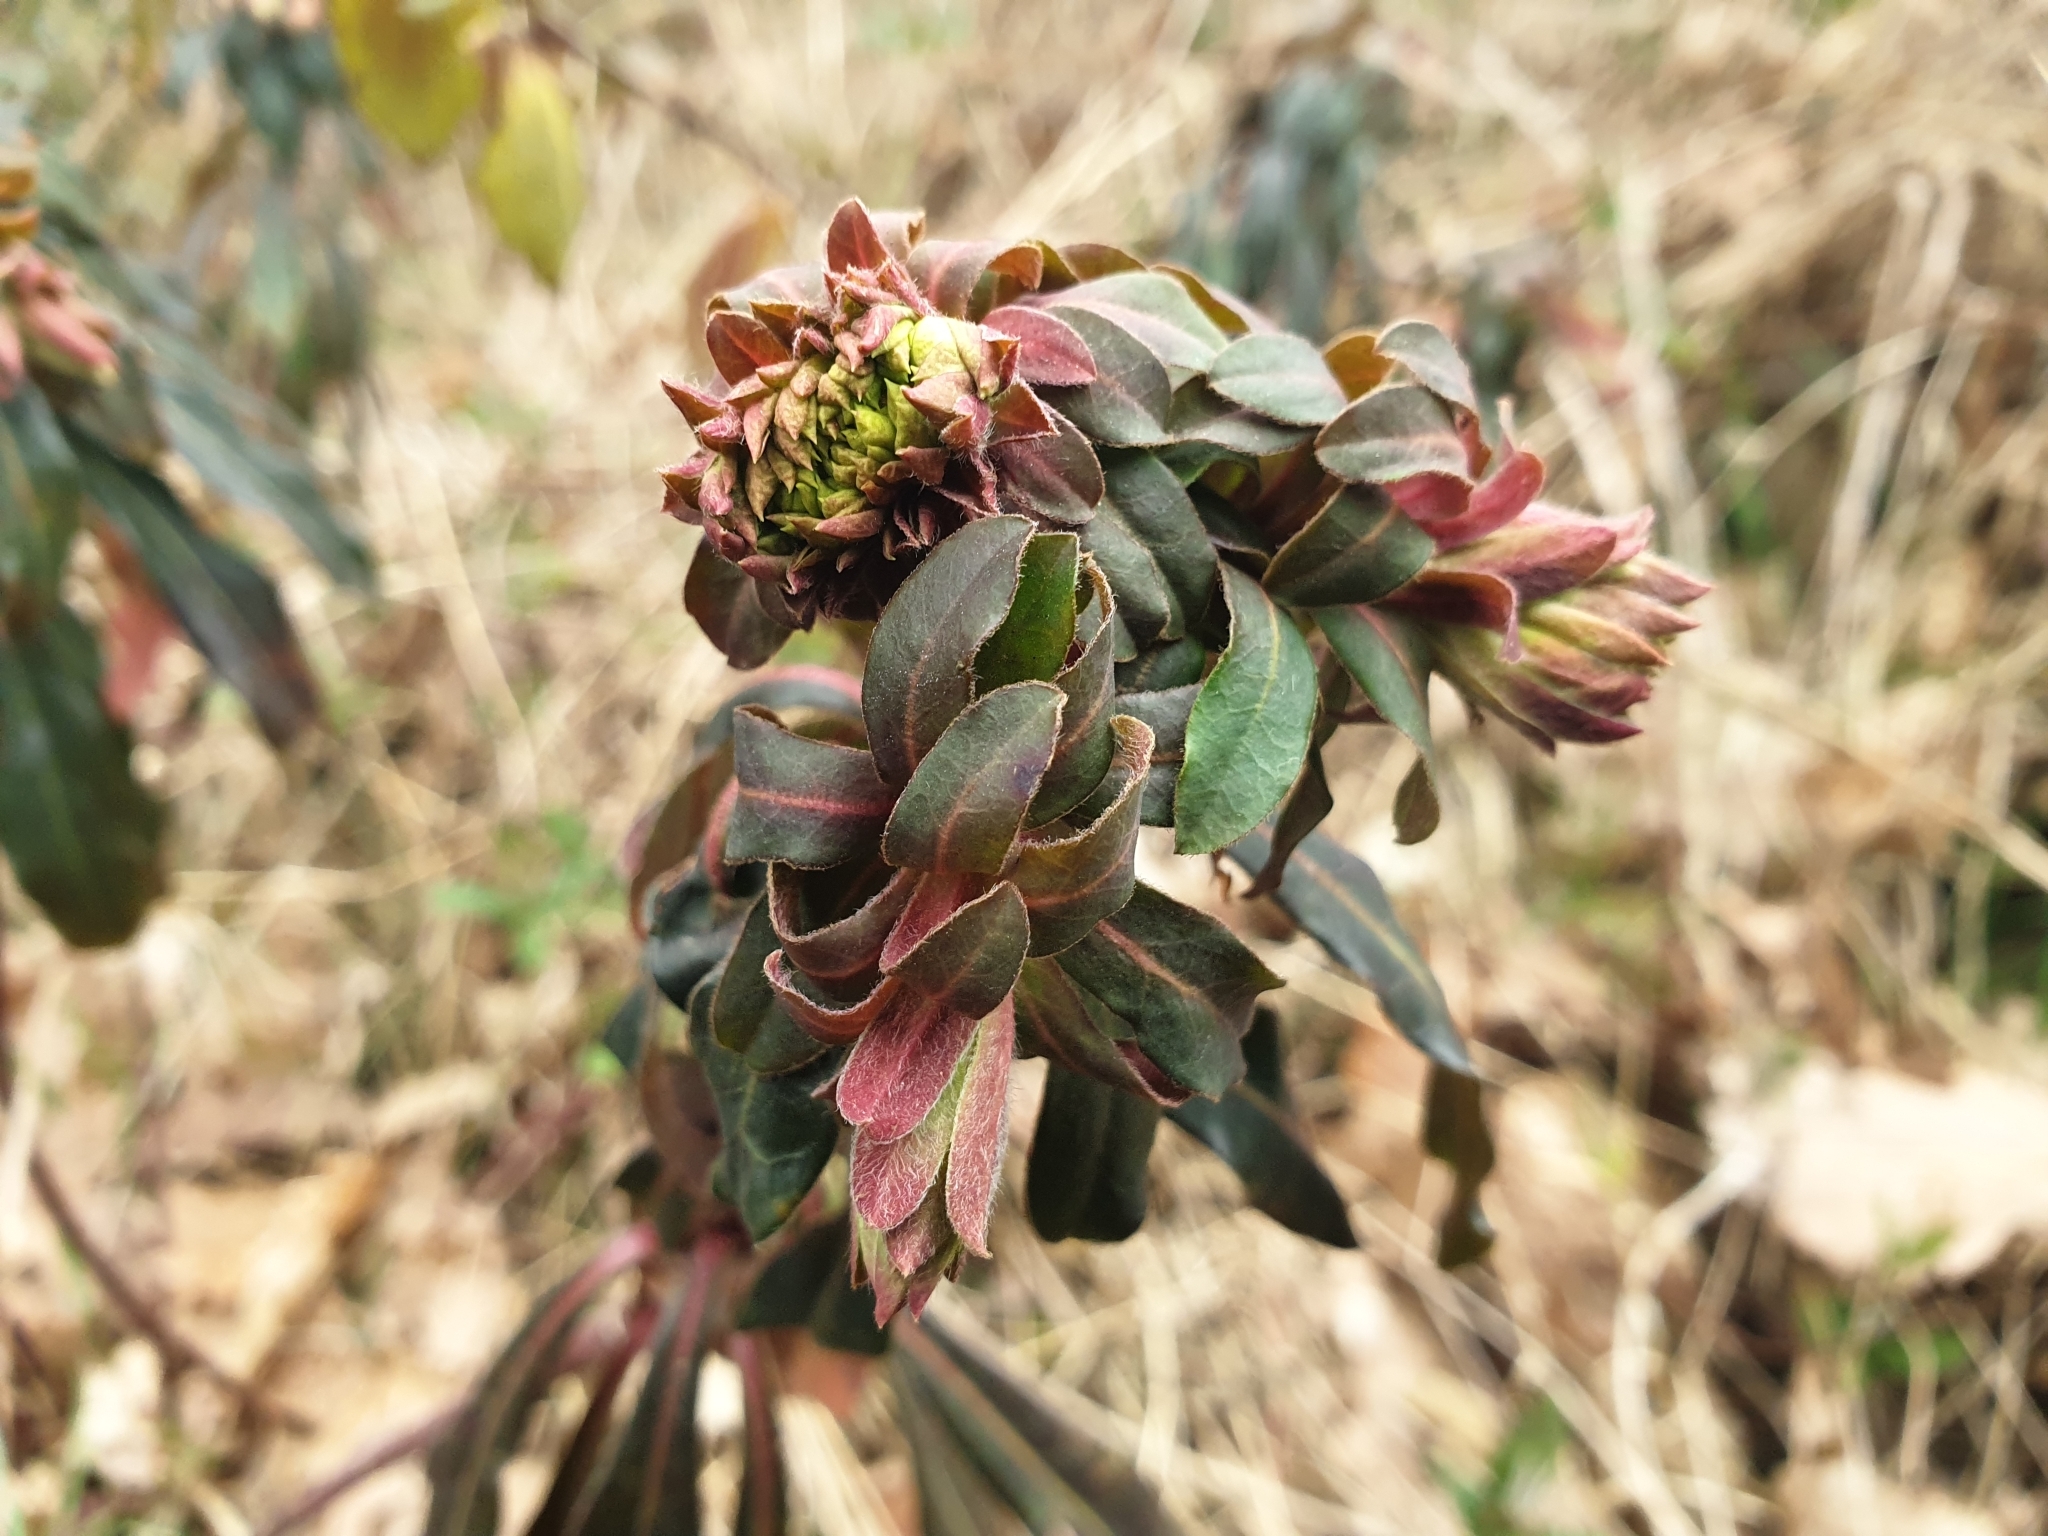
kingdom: Plantae
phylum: Tracheophyta
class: Magnoliopsida
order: Malpighiales
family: Euphorbiaceae
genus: Euphorbia
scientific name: Euphorbia amygdaloides
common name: Wood spurge
